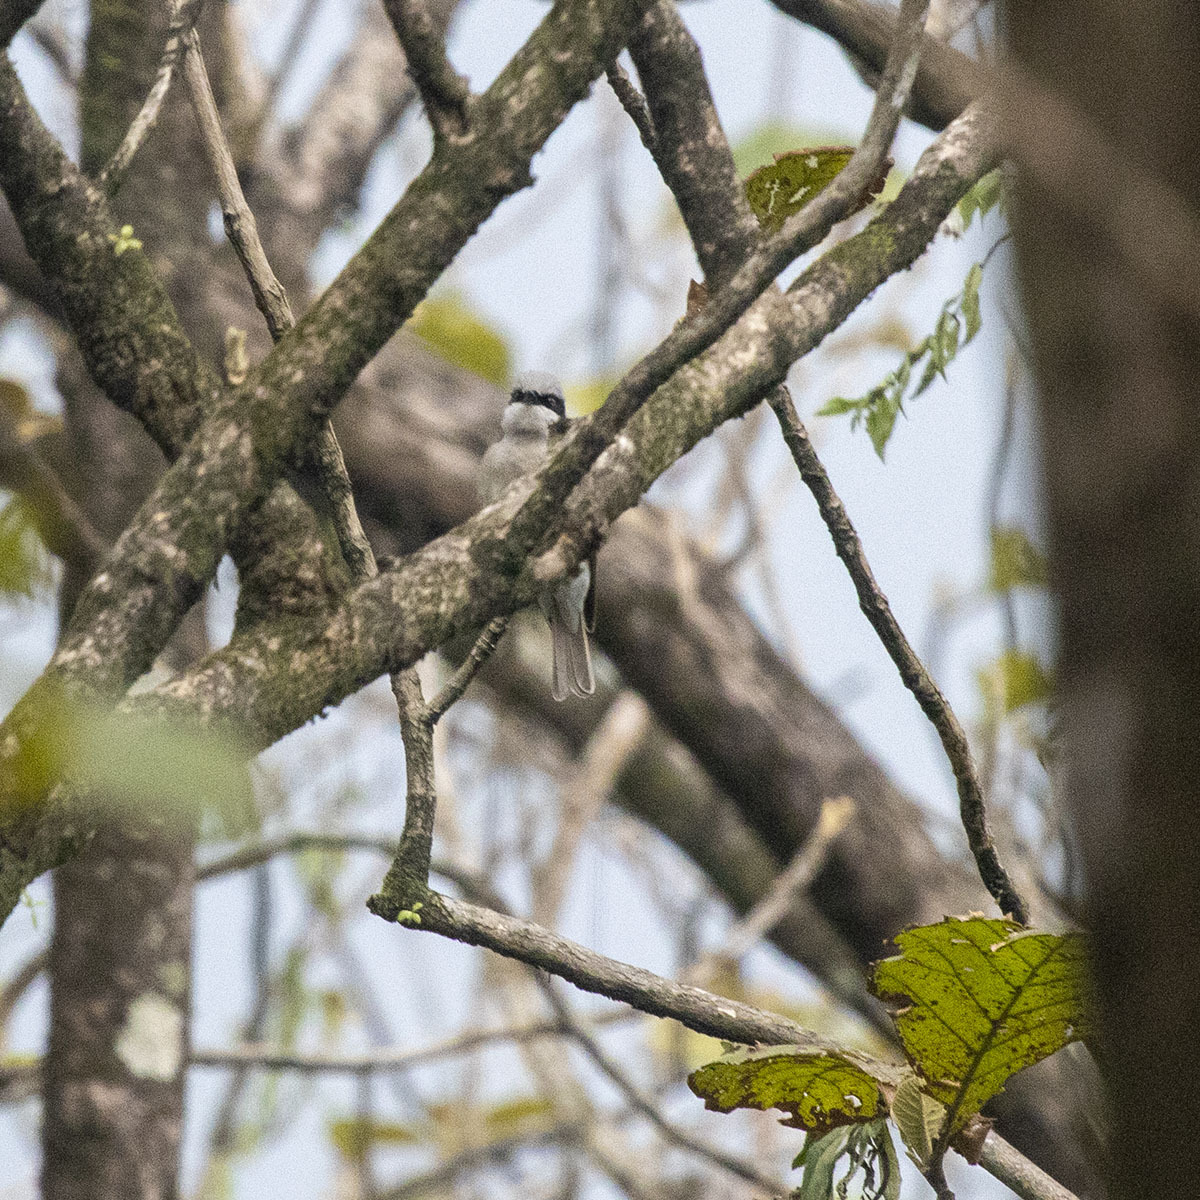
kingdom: Animalia
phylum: Chordata
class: Aves
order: Passeriformes
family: Tephrodornithidae
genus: Tephrodornis
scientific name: Tephrodornis virgatus
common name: Large woodshrike
